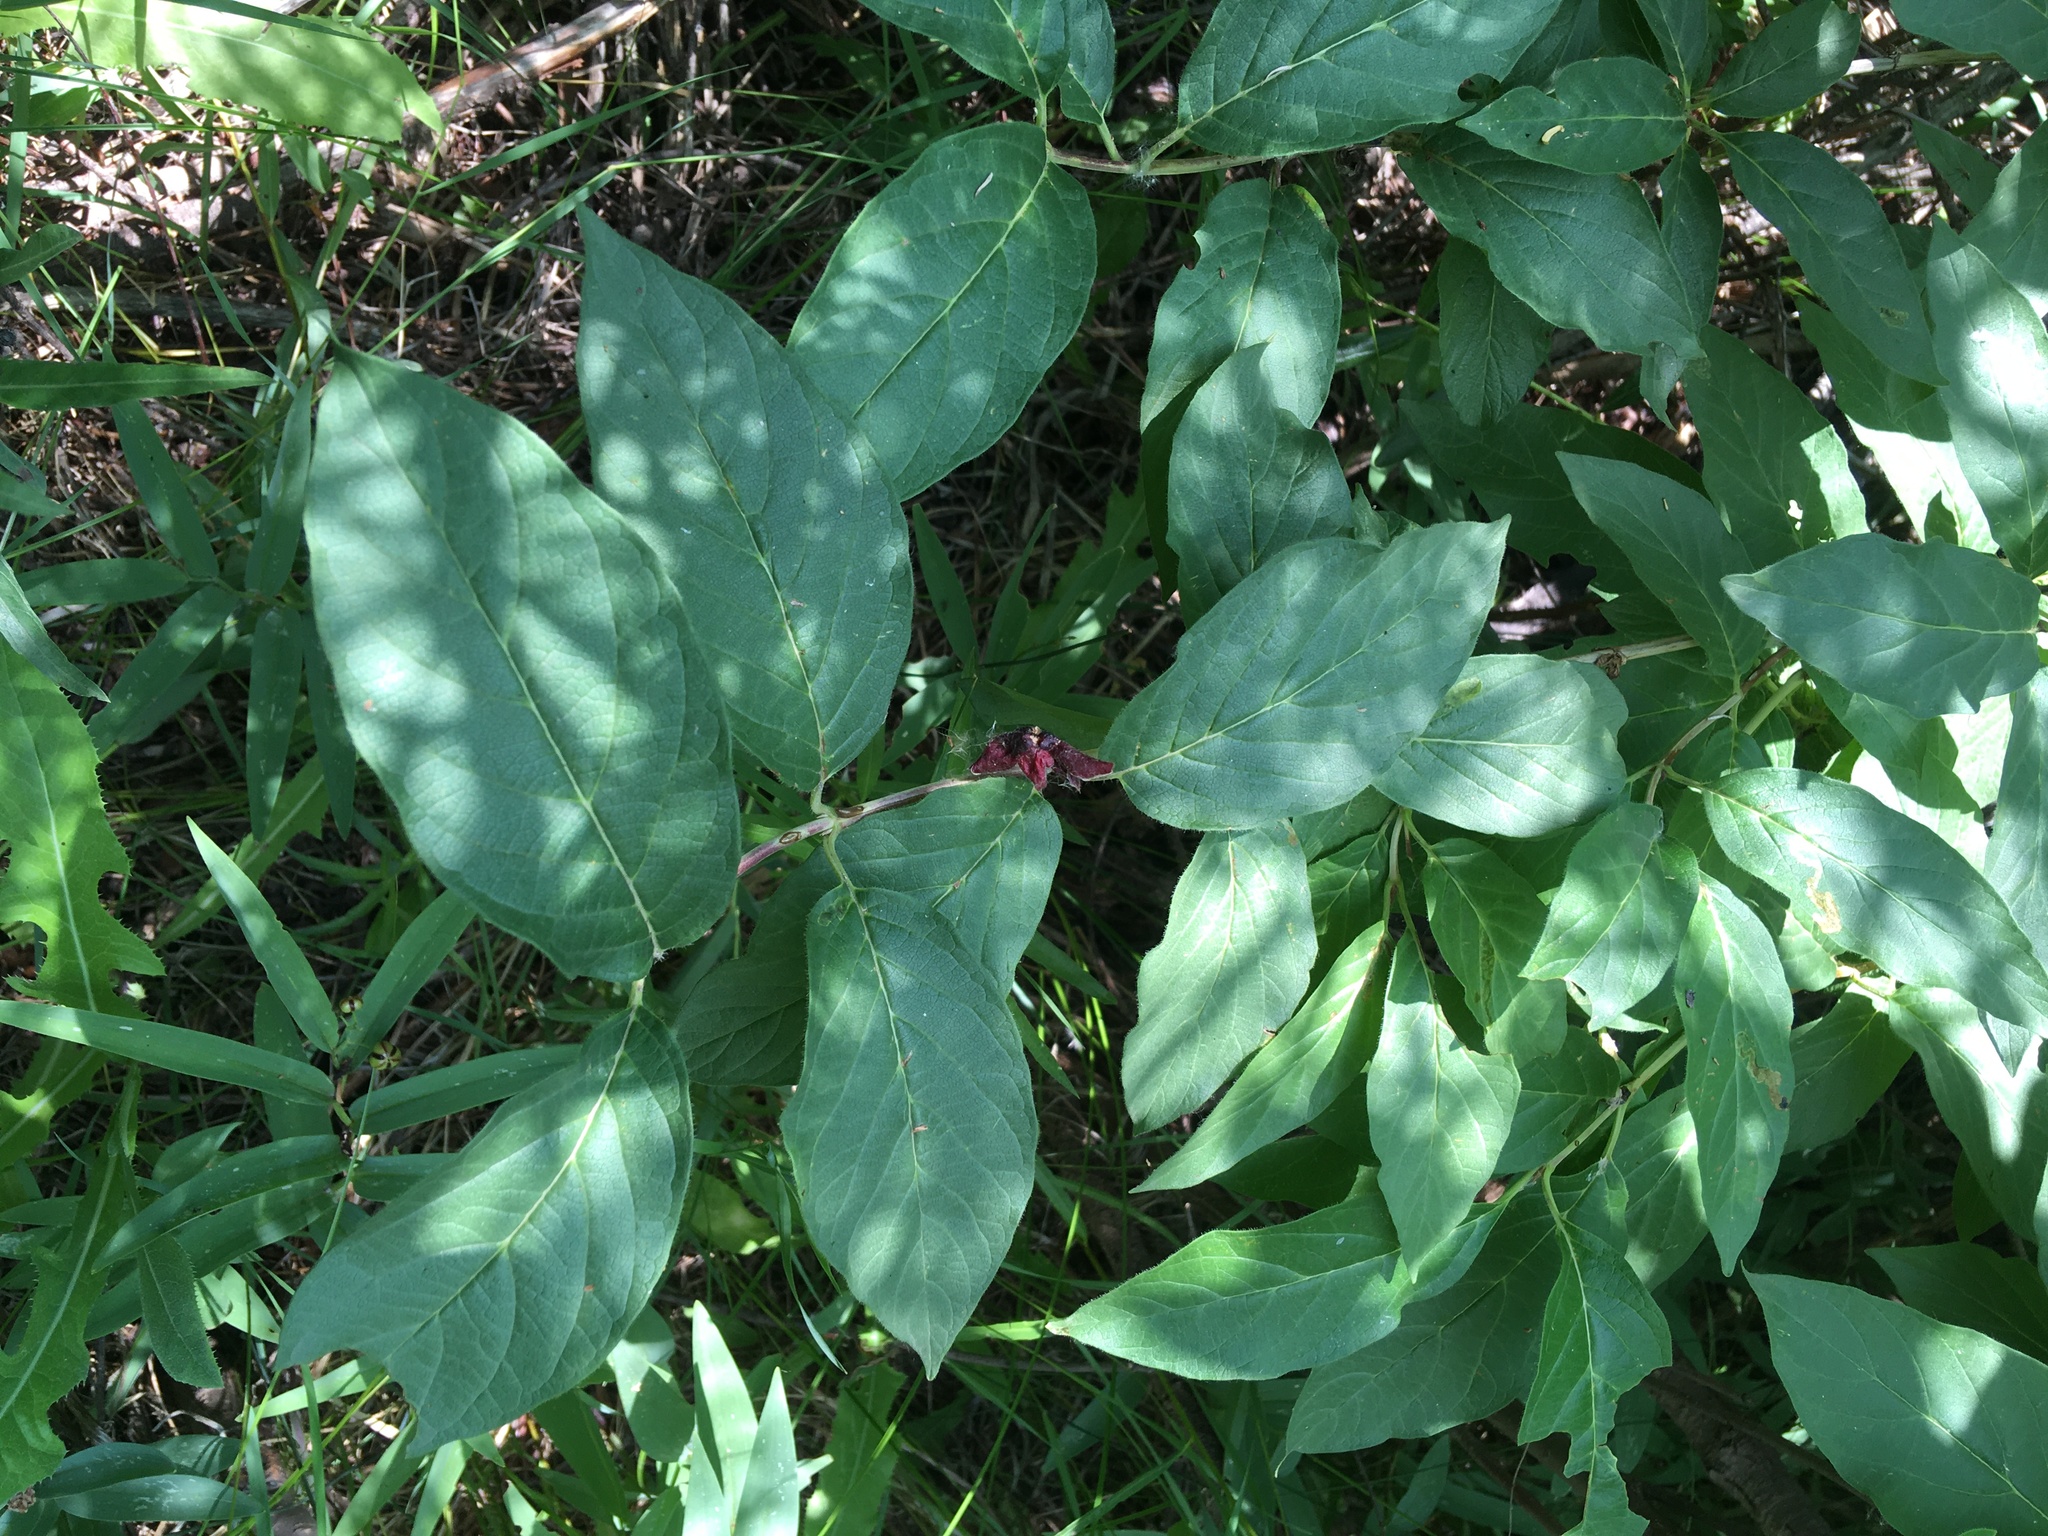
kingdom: Plantae
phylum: Tracheophyta
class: Magnoliopsida
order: Dipsacales
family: Caprifoliaceae
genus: Lonicera
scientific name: Lonicera involucrata
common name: Californian honeysuckle
